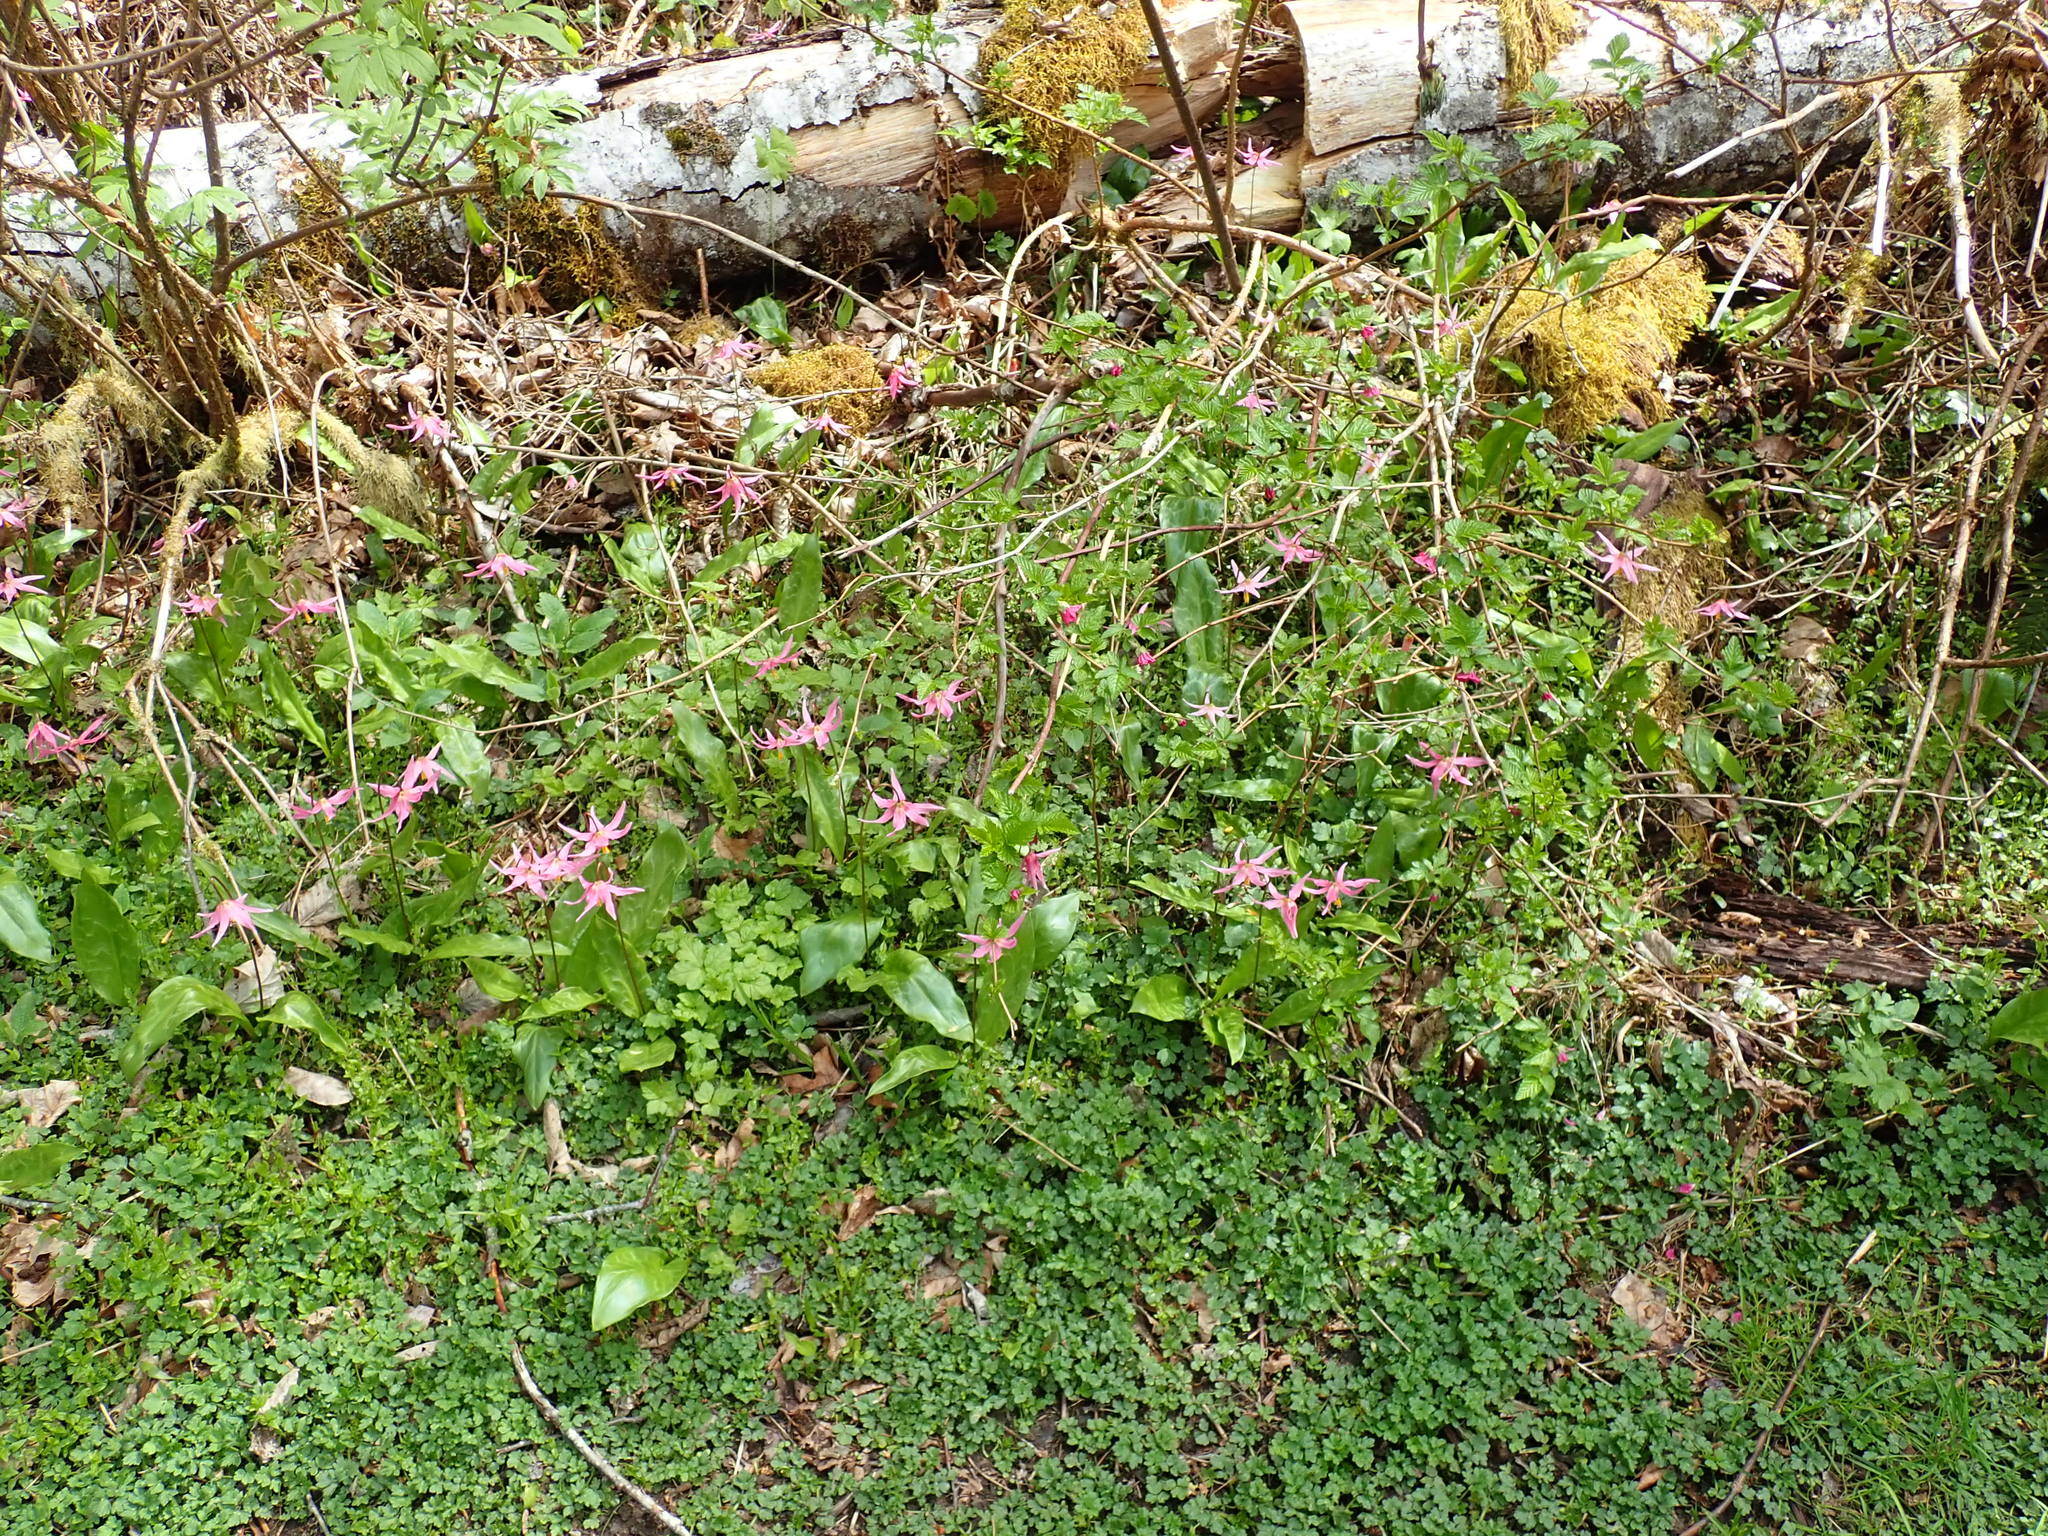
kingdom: Plantae
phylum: Tracheophyta
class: Liliopsida
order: Liliales
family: Liliaceae
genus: Erythronium
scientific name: Erythronium revolutum
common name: Pink fawn-lily
